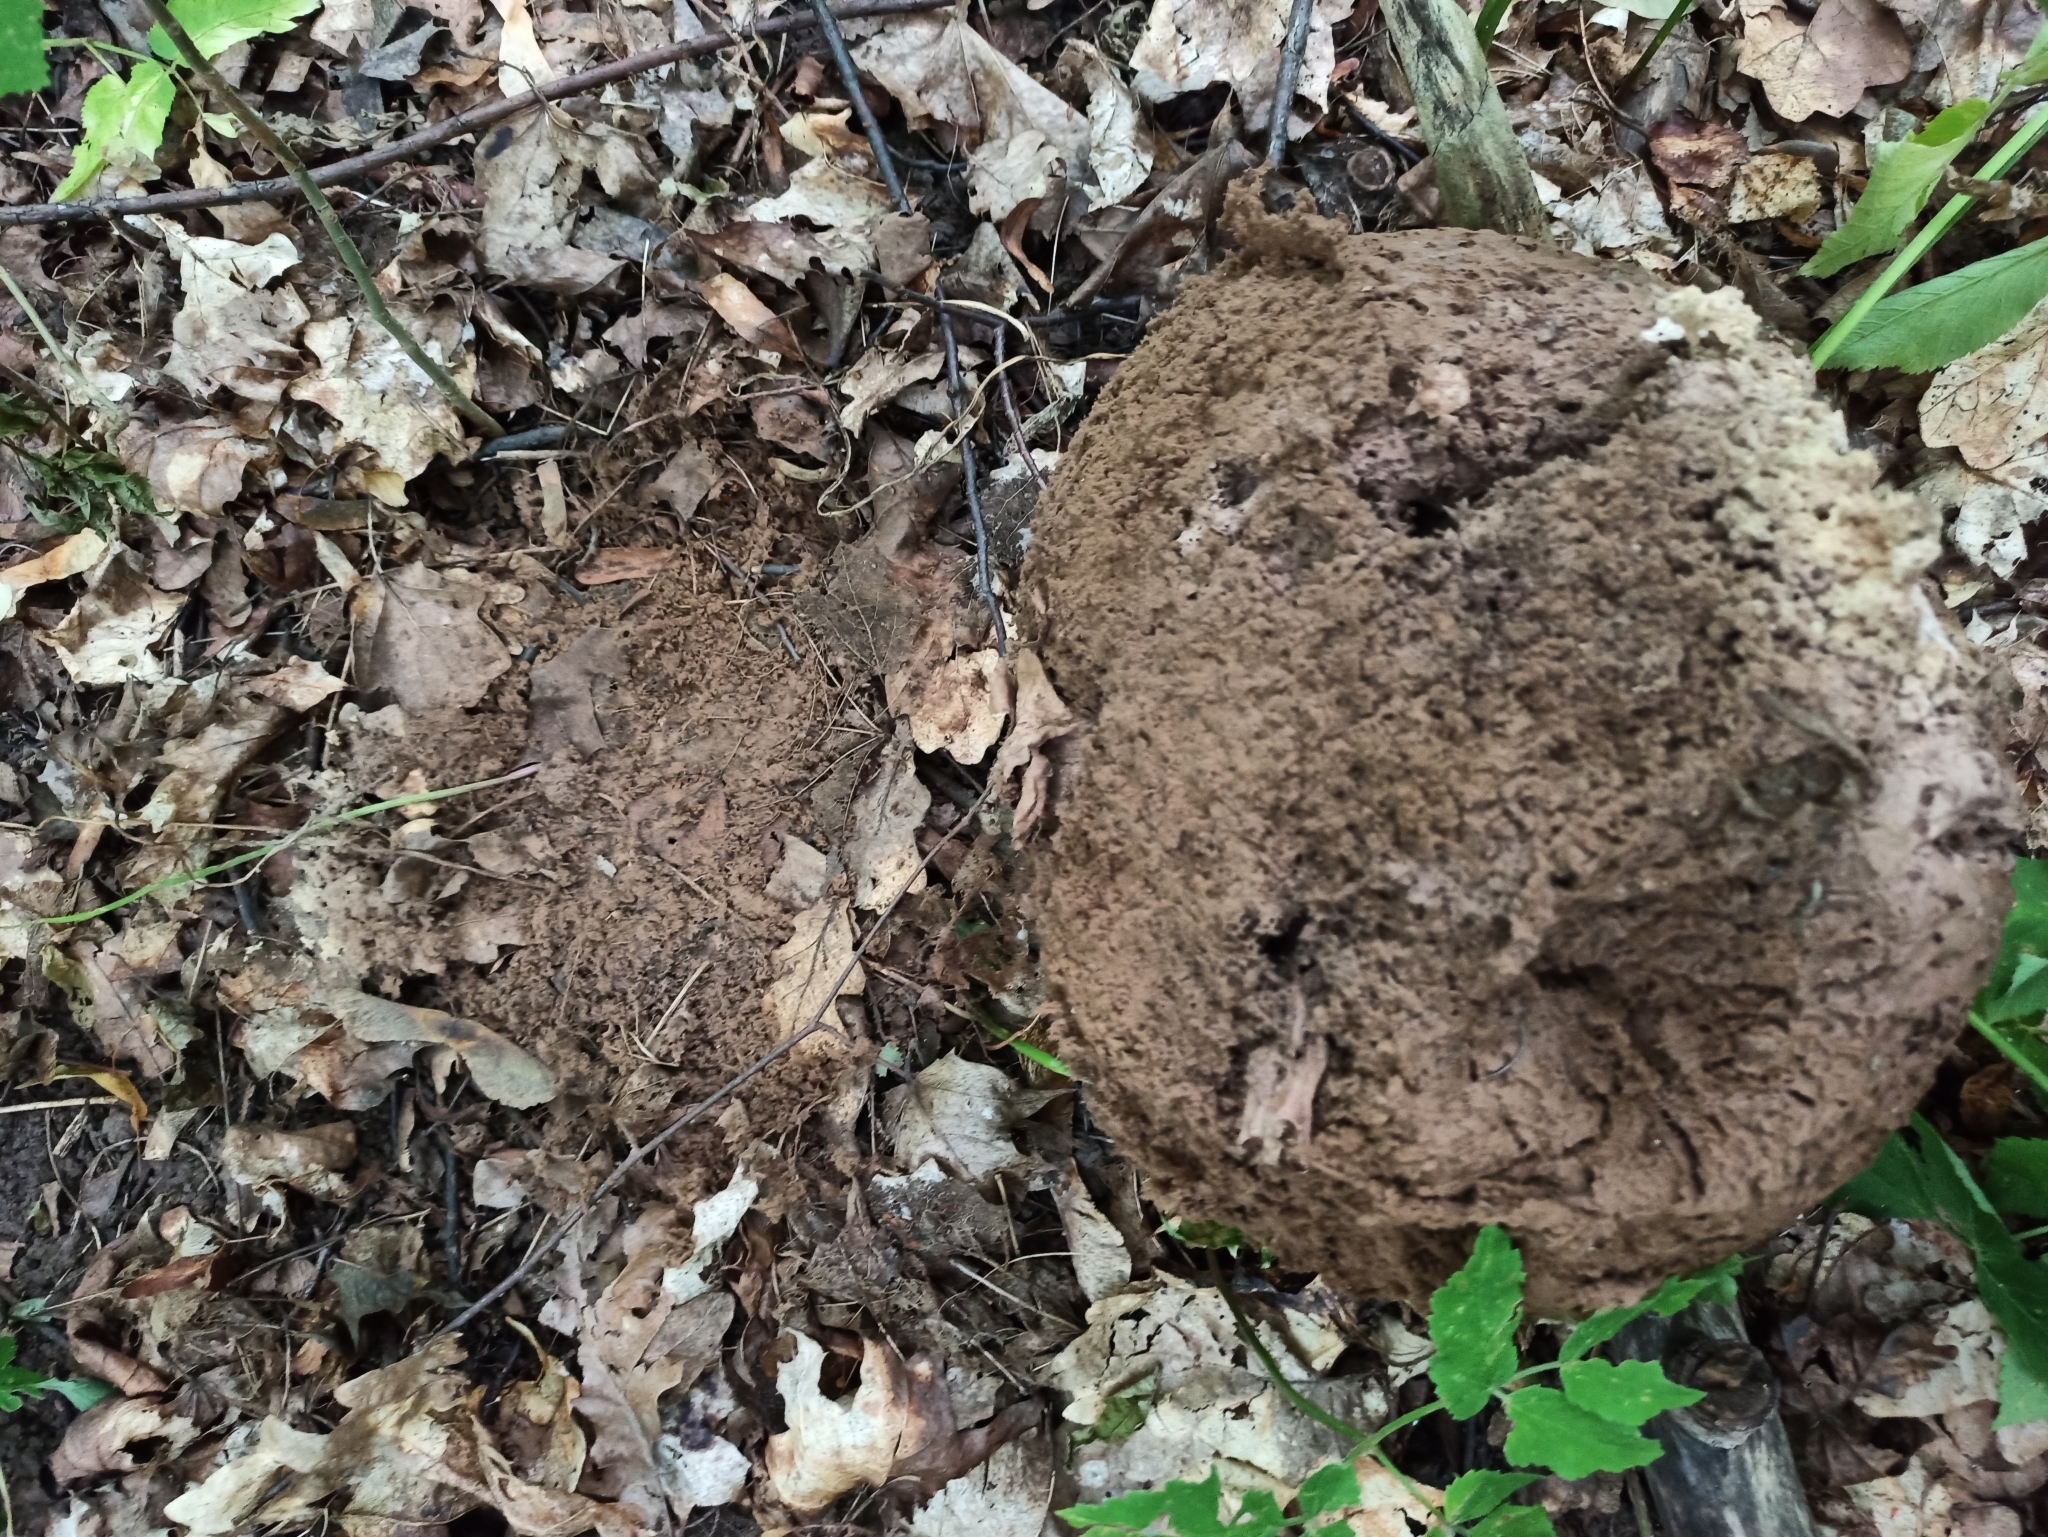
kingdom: Fungi
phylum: Basidiomycota
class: Agaricomycetes
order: Agaricales
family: Lycoperdaceae
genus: Calvatia
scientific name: Calvatia gigantea
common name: Giant puffball
